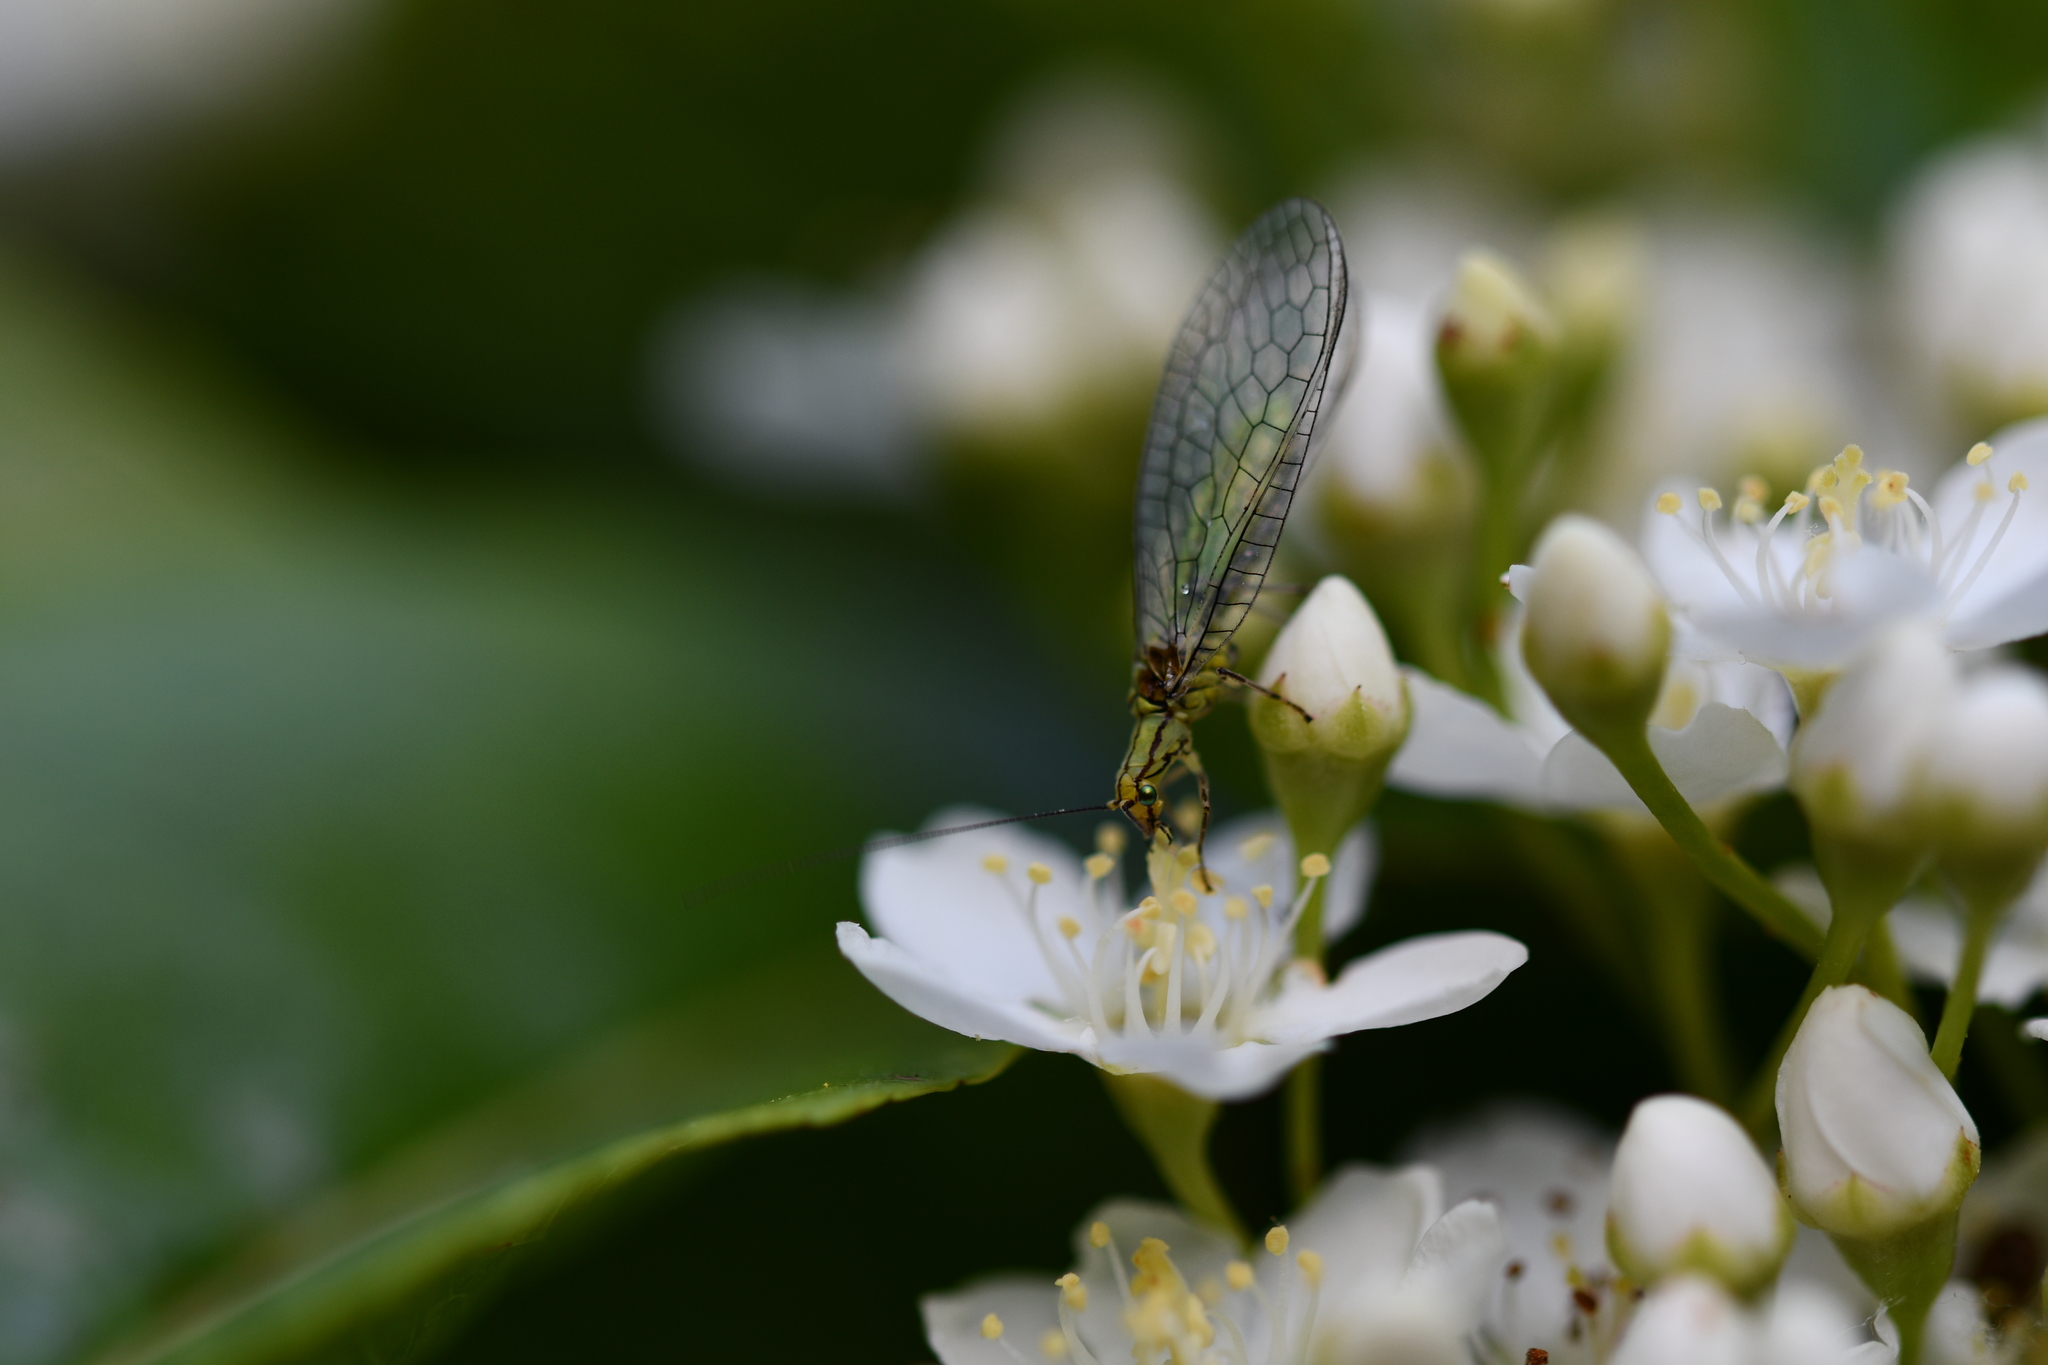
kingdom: Animalia
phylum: Arthropoda
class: Insecta
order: Neuroptera
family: Chrysopidae
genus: Hypochrysa
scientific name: Hypochrysa elegans
